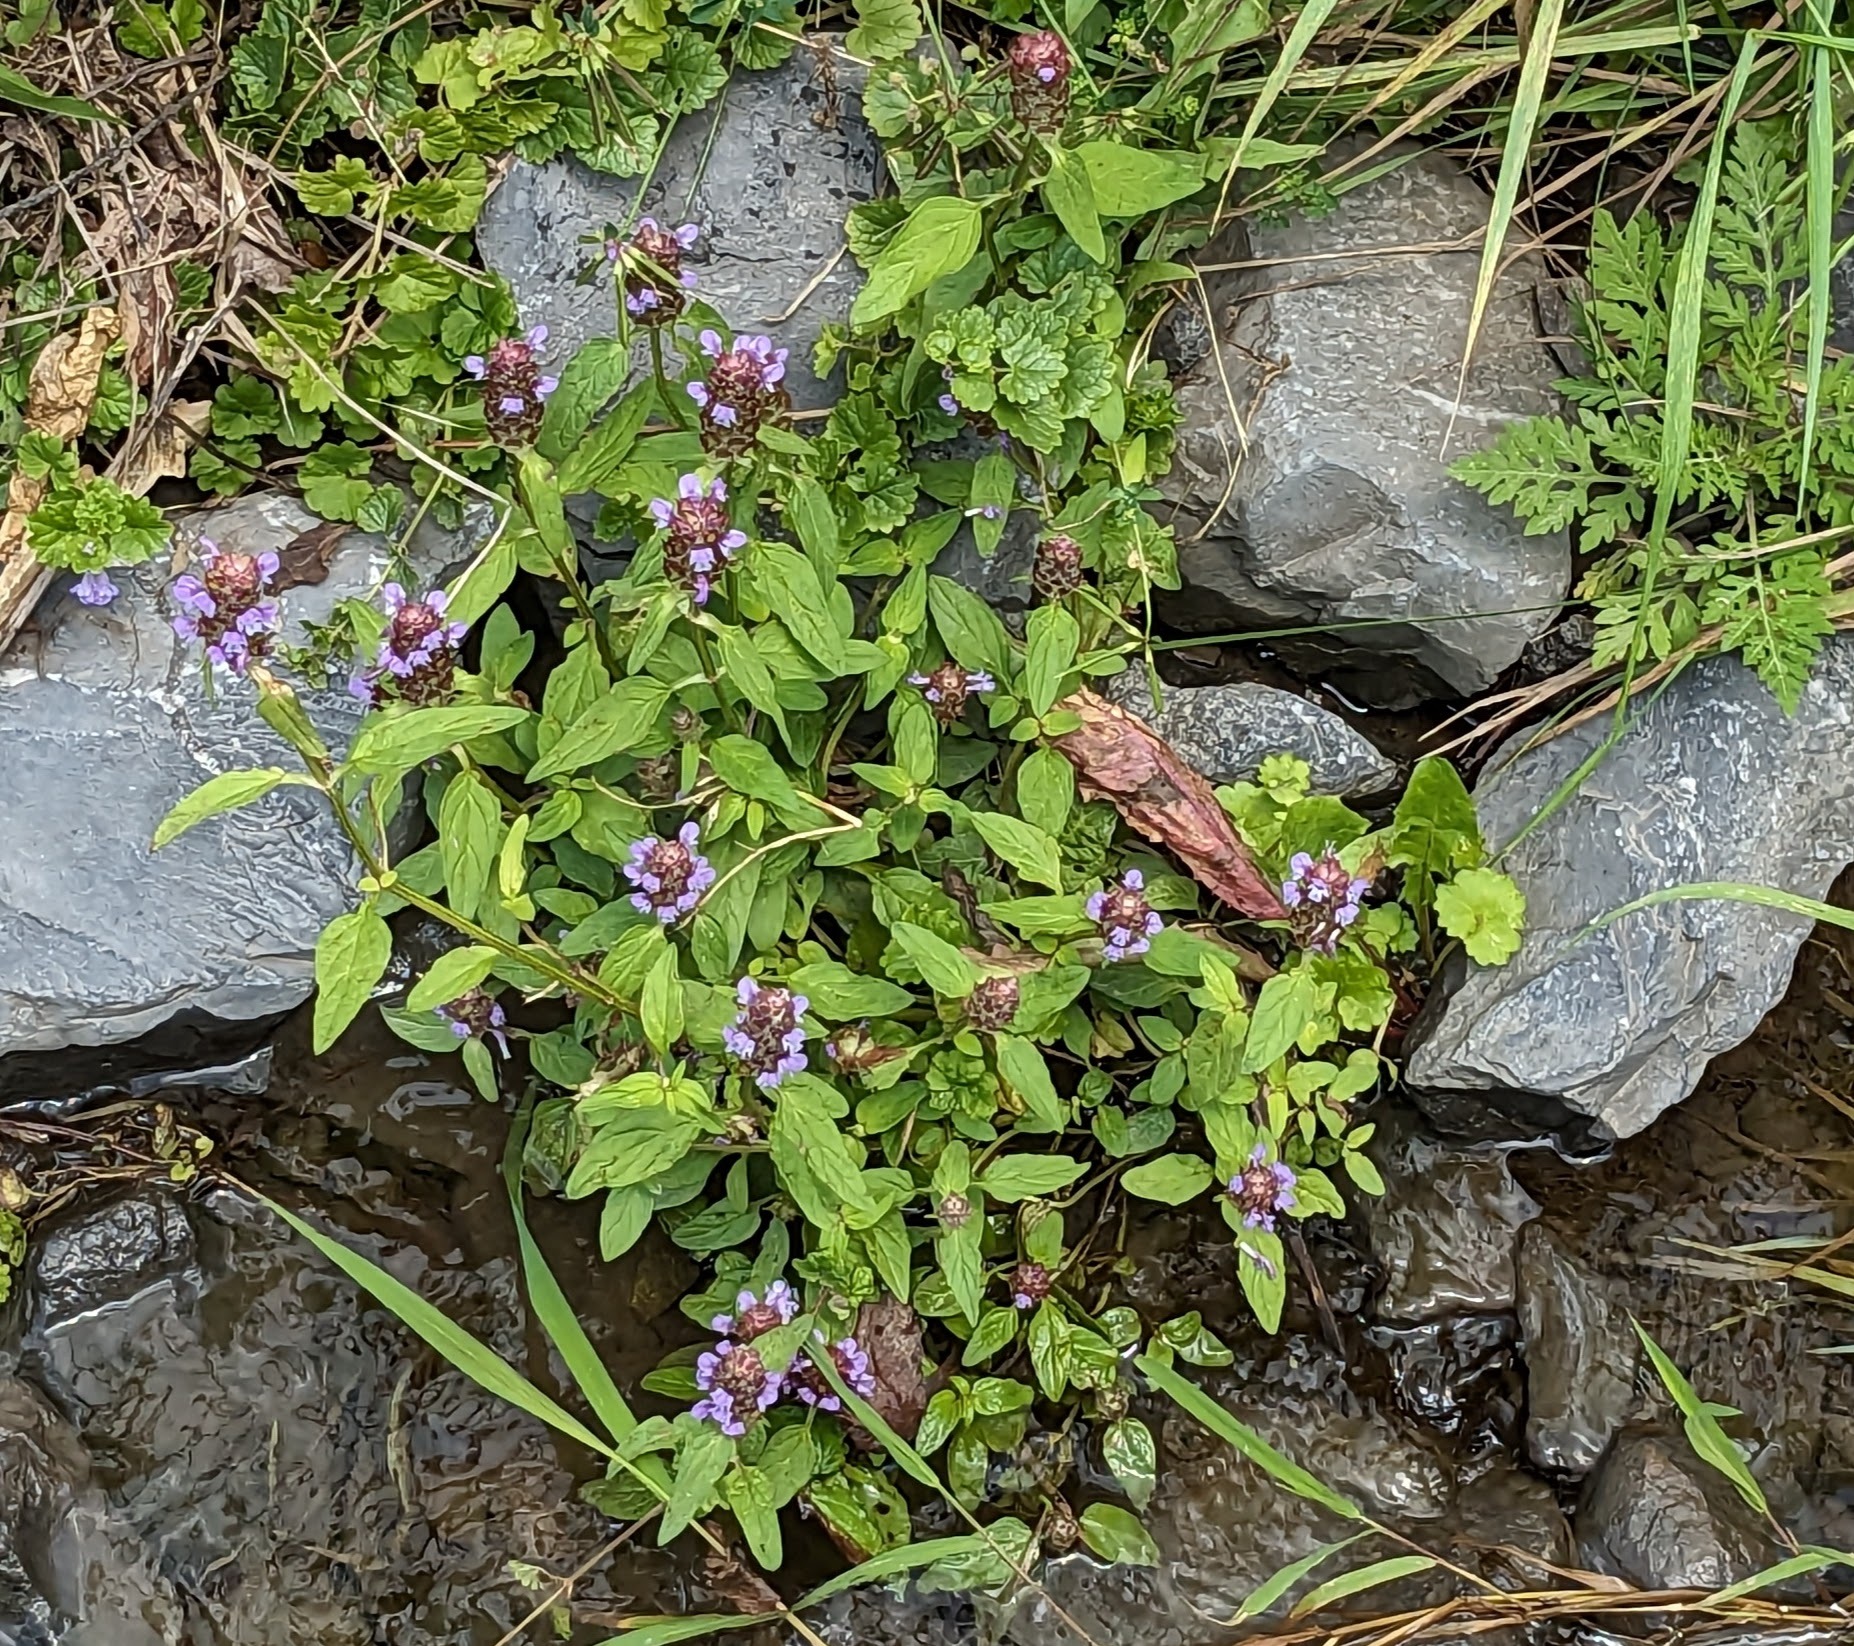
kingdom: Plantae
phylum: Tracheophyta
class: Magnoliopsida
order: Lamiales
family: Lamiaceae
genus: Prunella
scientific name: Prunella vulgaris
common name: Heal-all
